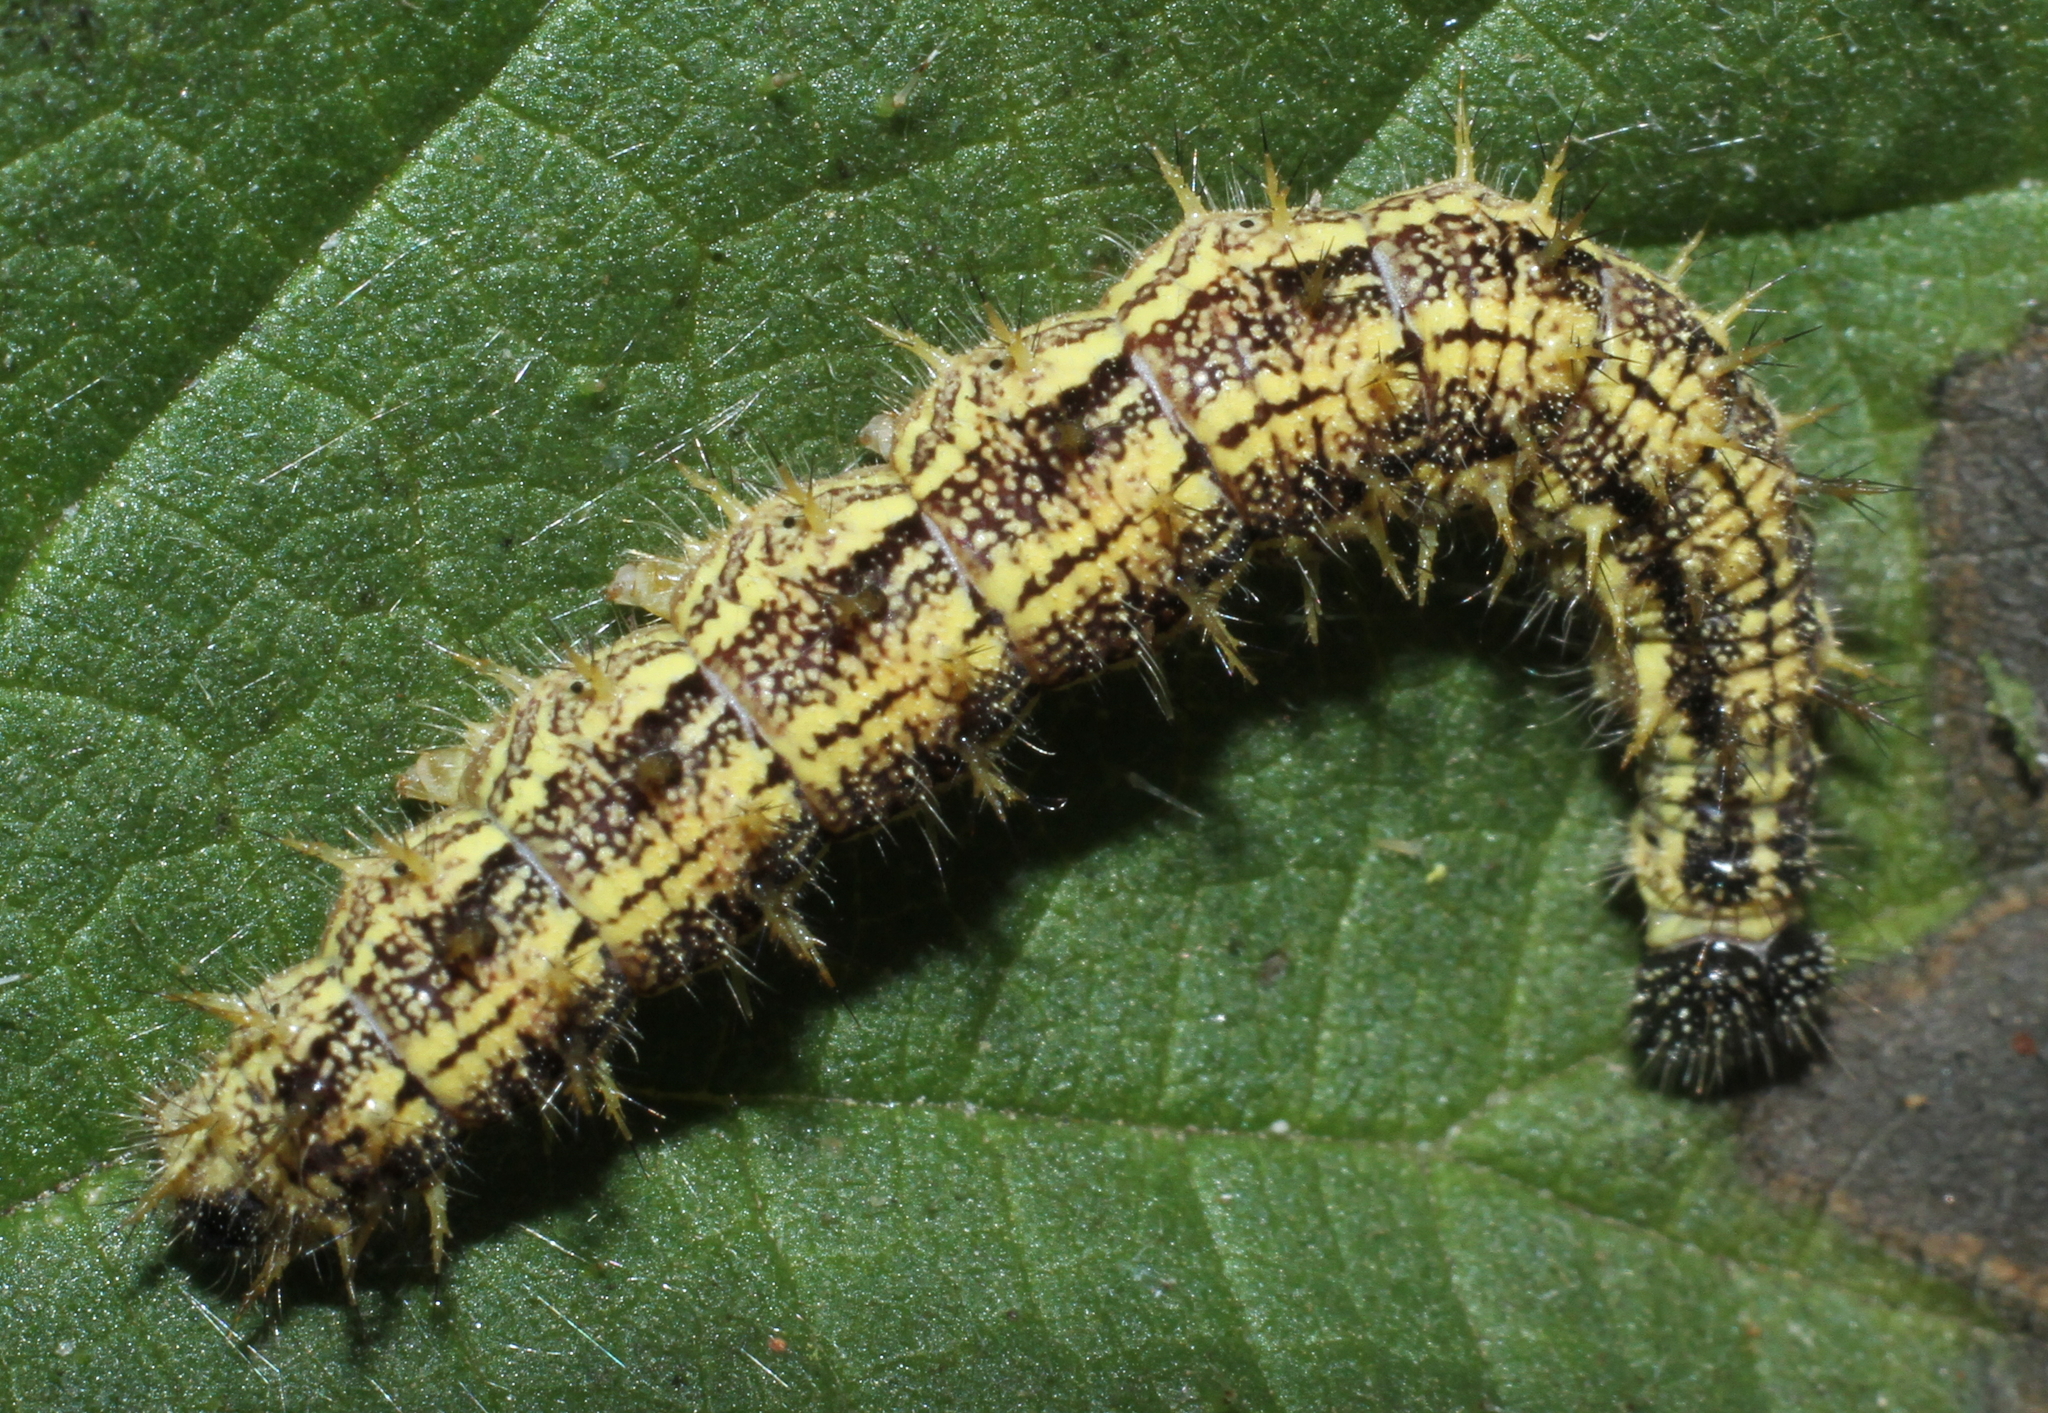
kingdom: Animalia
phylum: Arthropoda
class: Insecta
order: Lepidoptera
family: Nymphalidae
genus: Aglais
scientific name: Aglais urticae
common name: Small tortoiseshell
